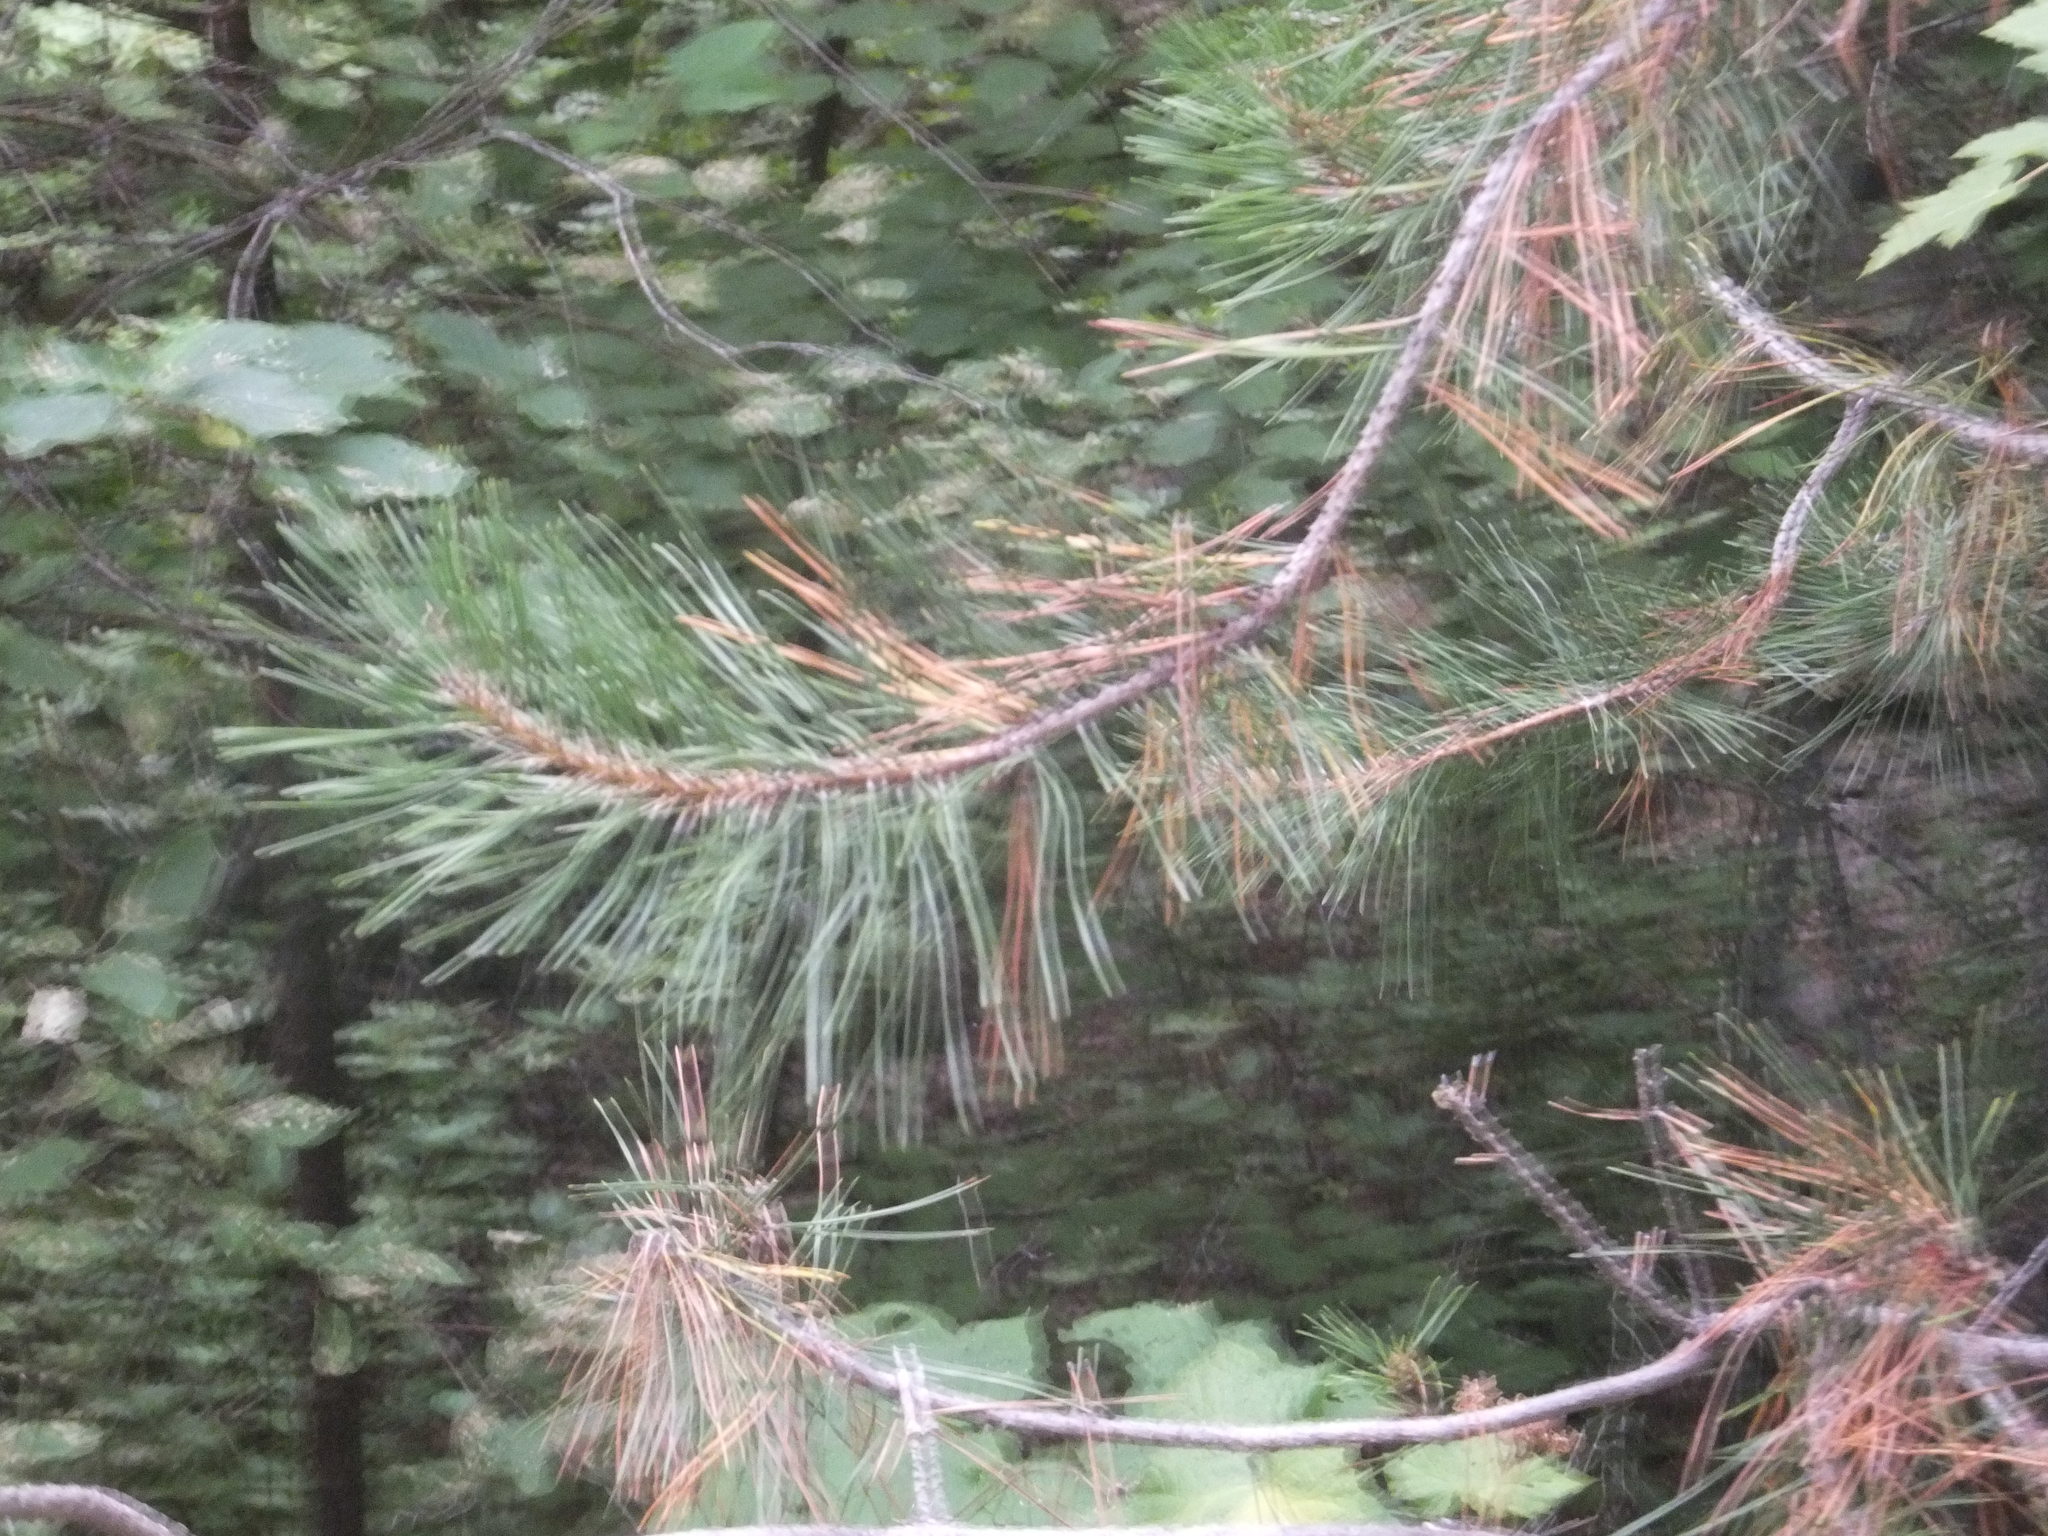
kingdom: Plantae
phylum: Tracheophyta
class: Pinopsida
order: Pinales
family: Pinaceae
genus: Pinus
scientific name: Pinus contorta
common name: Lodgepole pine
